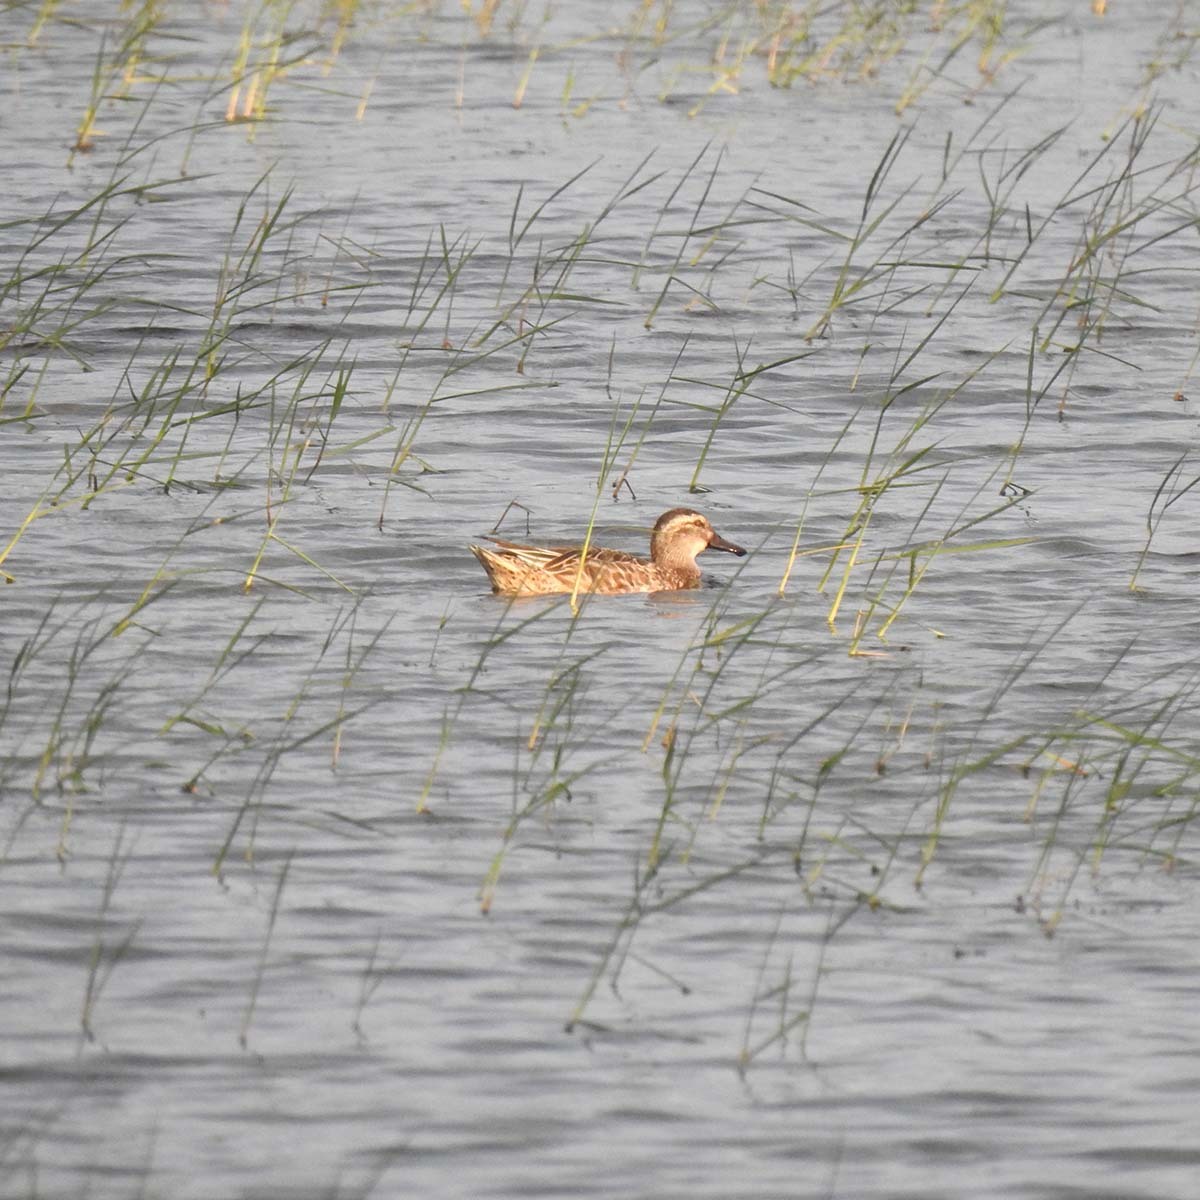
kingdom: Animalia
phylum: Chordata
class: Aves
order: Anseriformes
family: Anatidae
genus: Spatula
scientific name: Spatula querquedula
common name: Garganey
